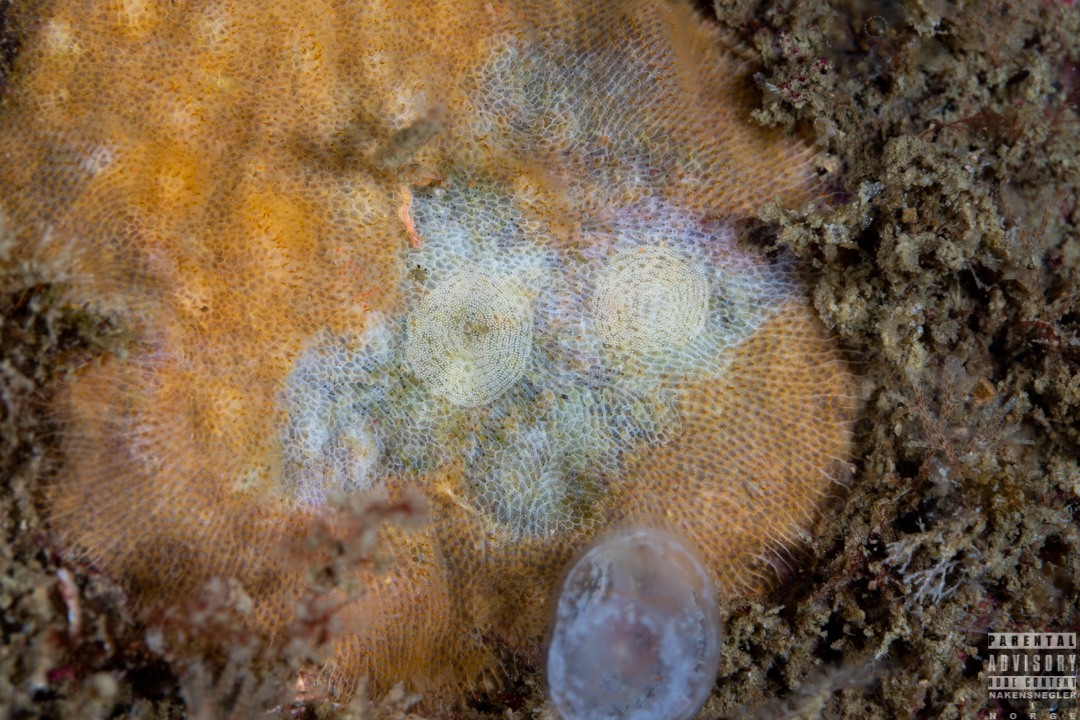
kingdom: Animalia
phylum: Mollusca
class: Gastropoda
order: Nudibranchia
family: Onchidorididae
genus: Idaliadoris
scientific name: Idaliadoris depressa
